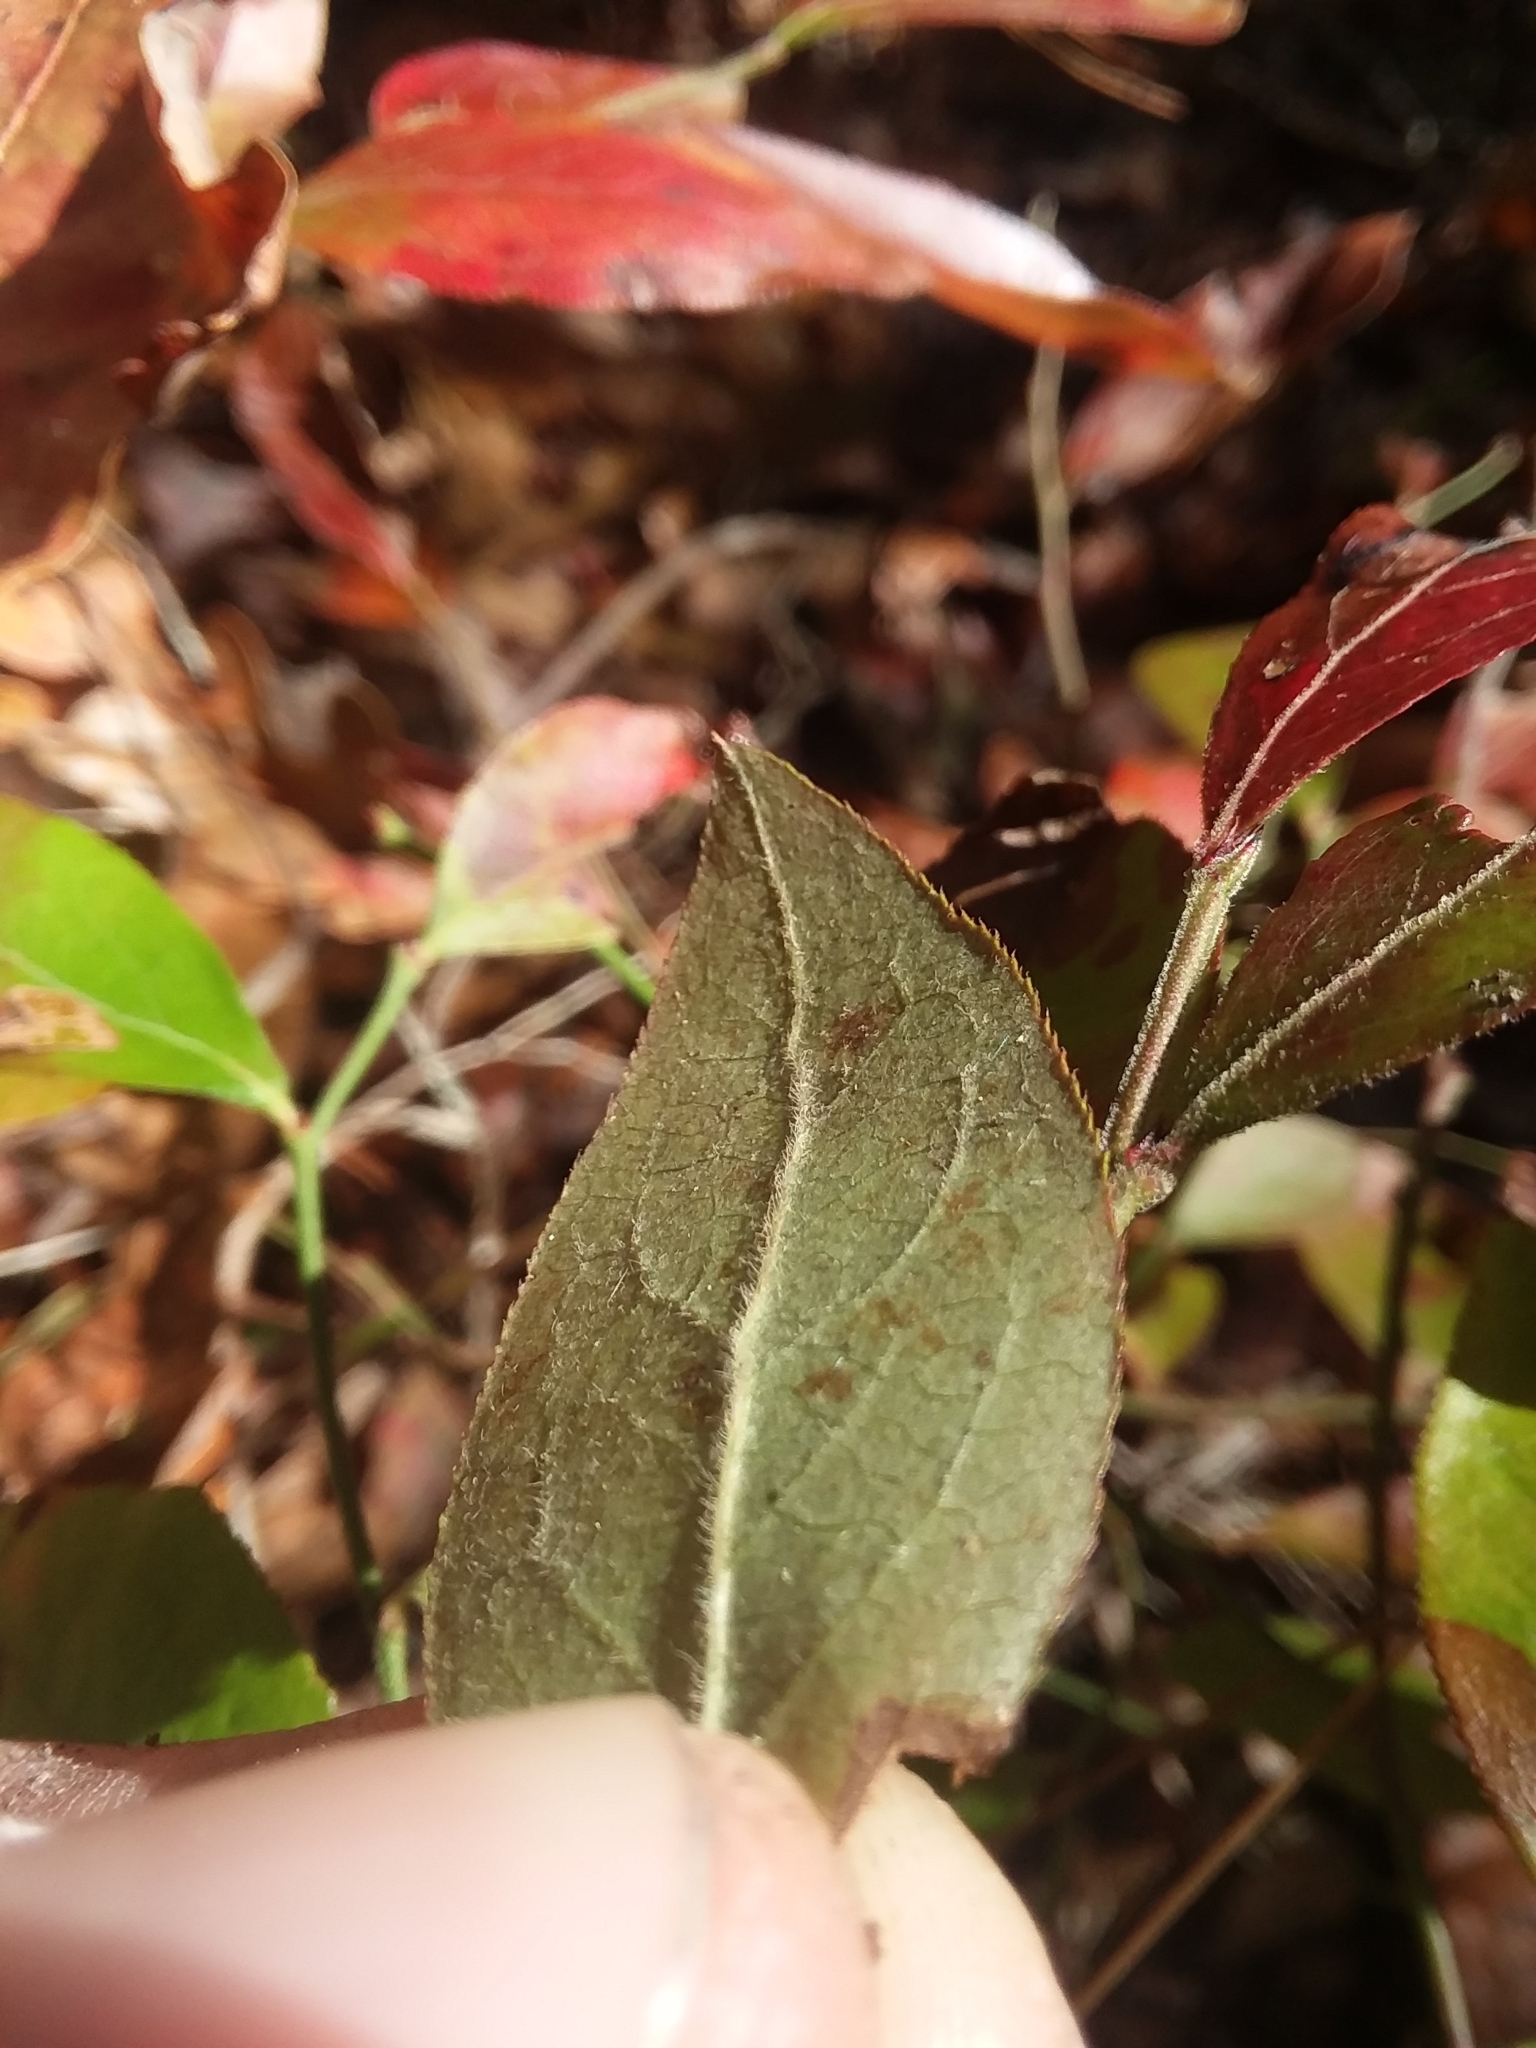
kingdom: Plantae
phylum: Tracheophyta
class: Magnoliopsida
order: Ericales
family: Ericaceae
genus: Vaccinium
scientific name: Vaccinium tenellum
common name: Southern blueberry
